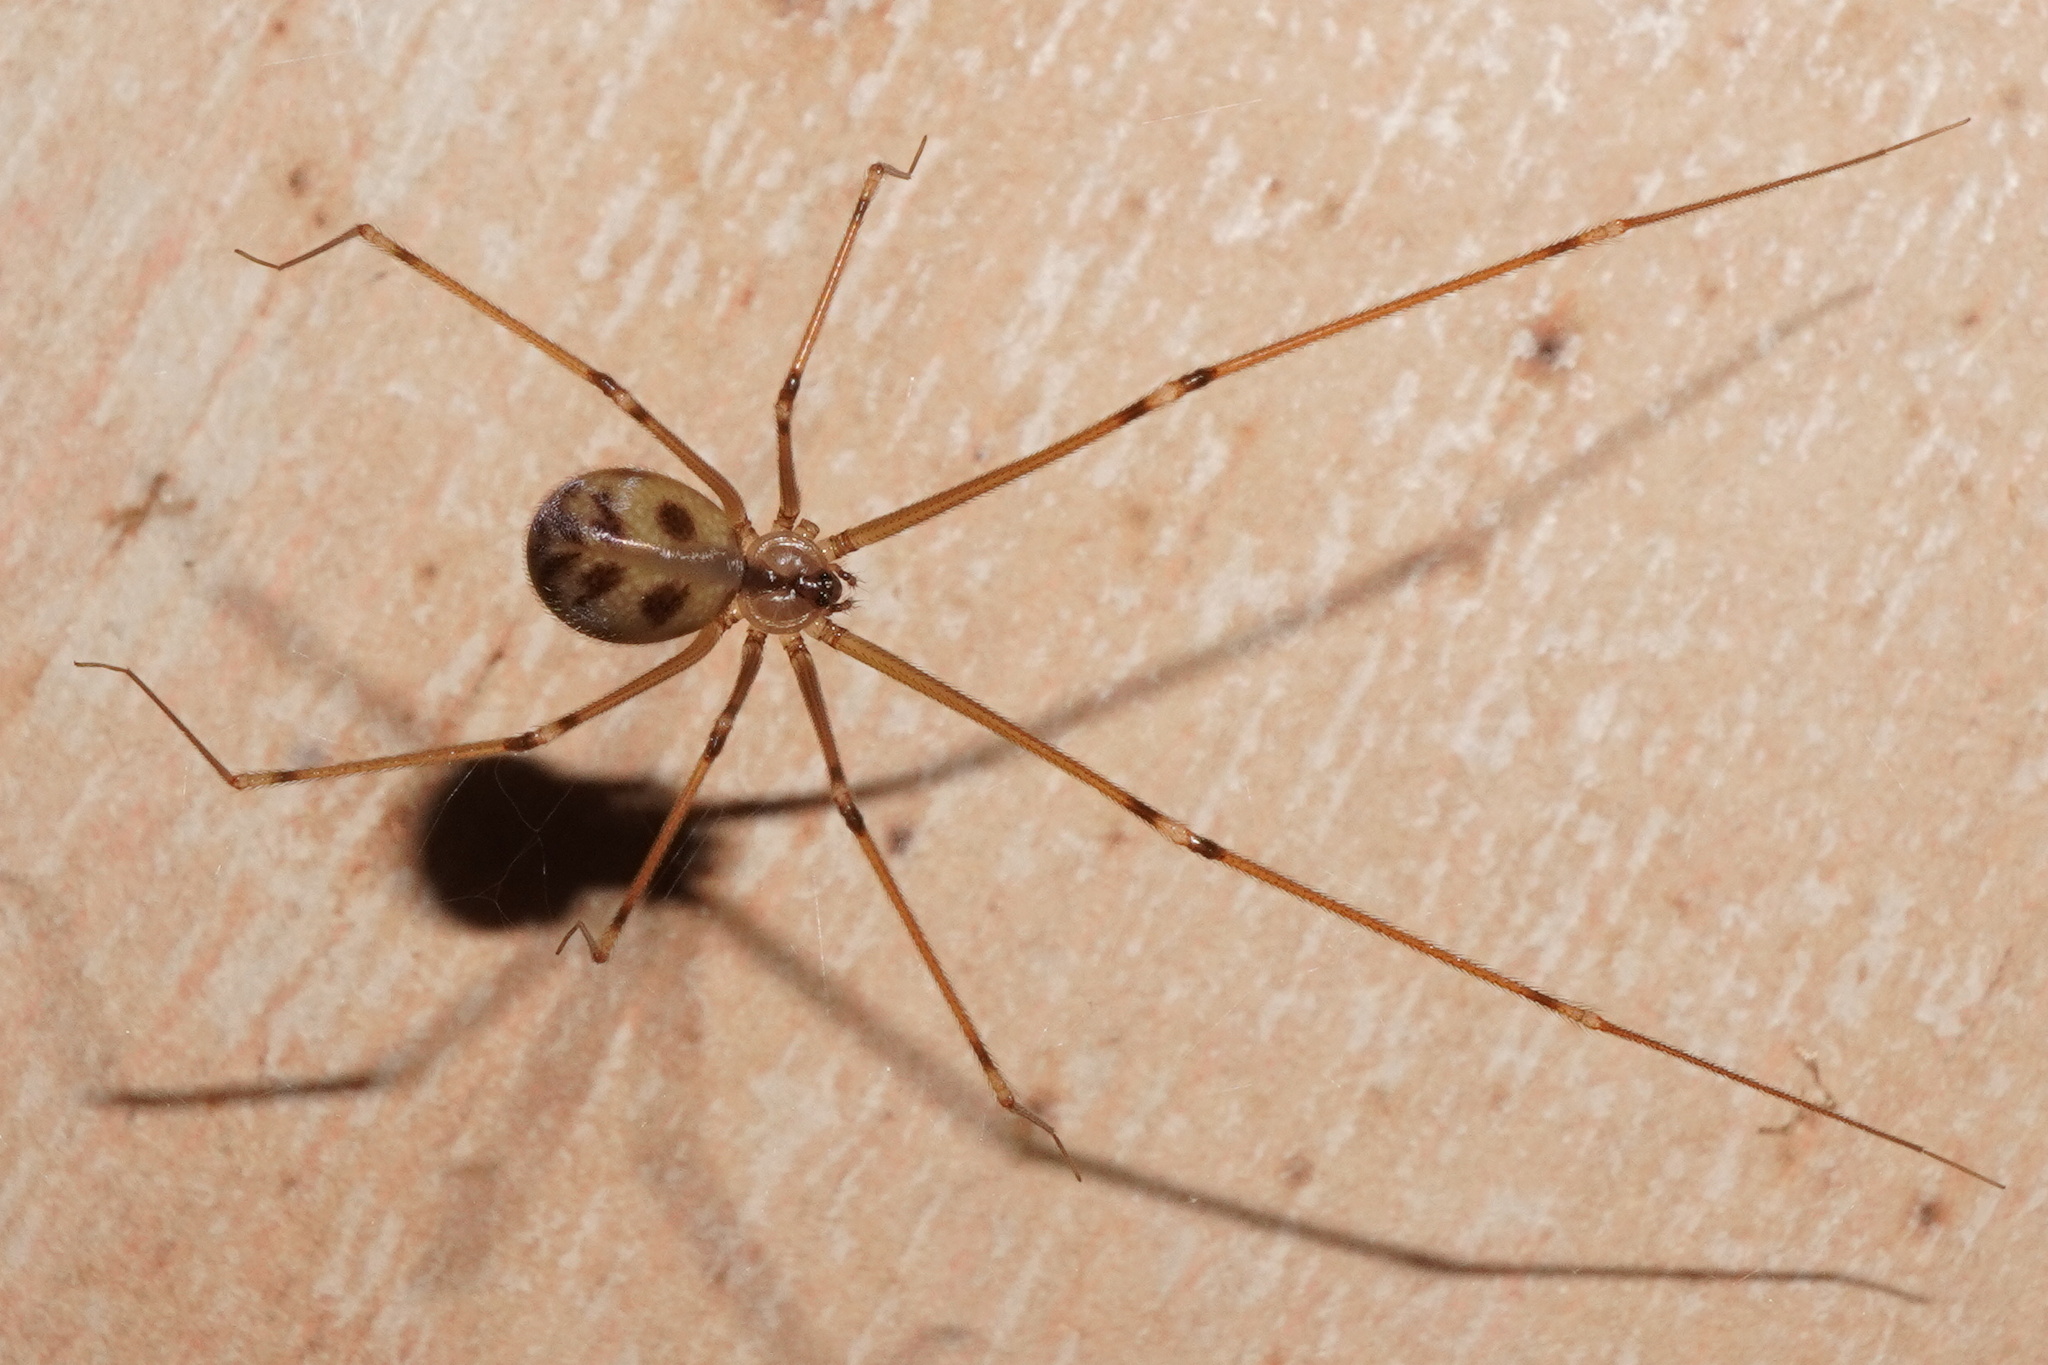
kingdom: Animalia
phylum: Arthropoda
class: Arachnida
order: Araneae
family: Pholcidae
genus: Hoplopholcus
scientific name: Hoplopholcus forskali
